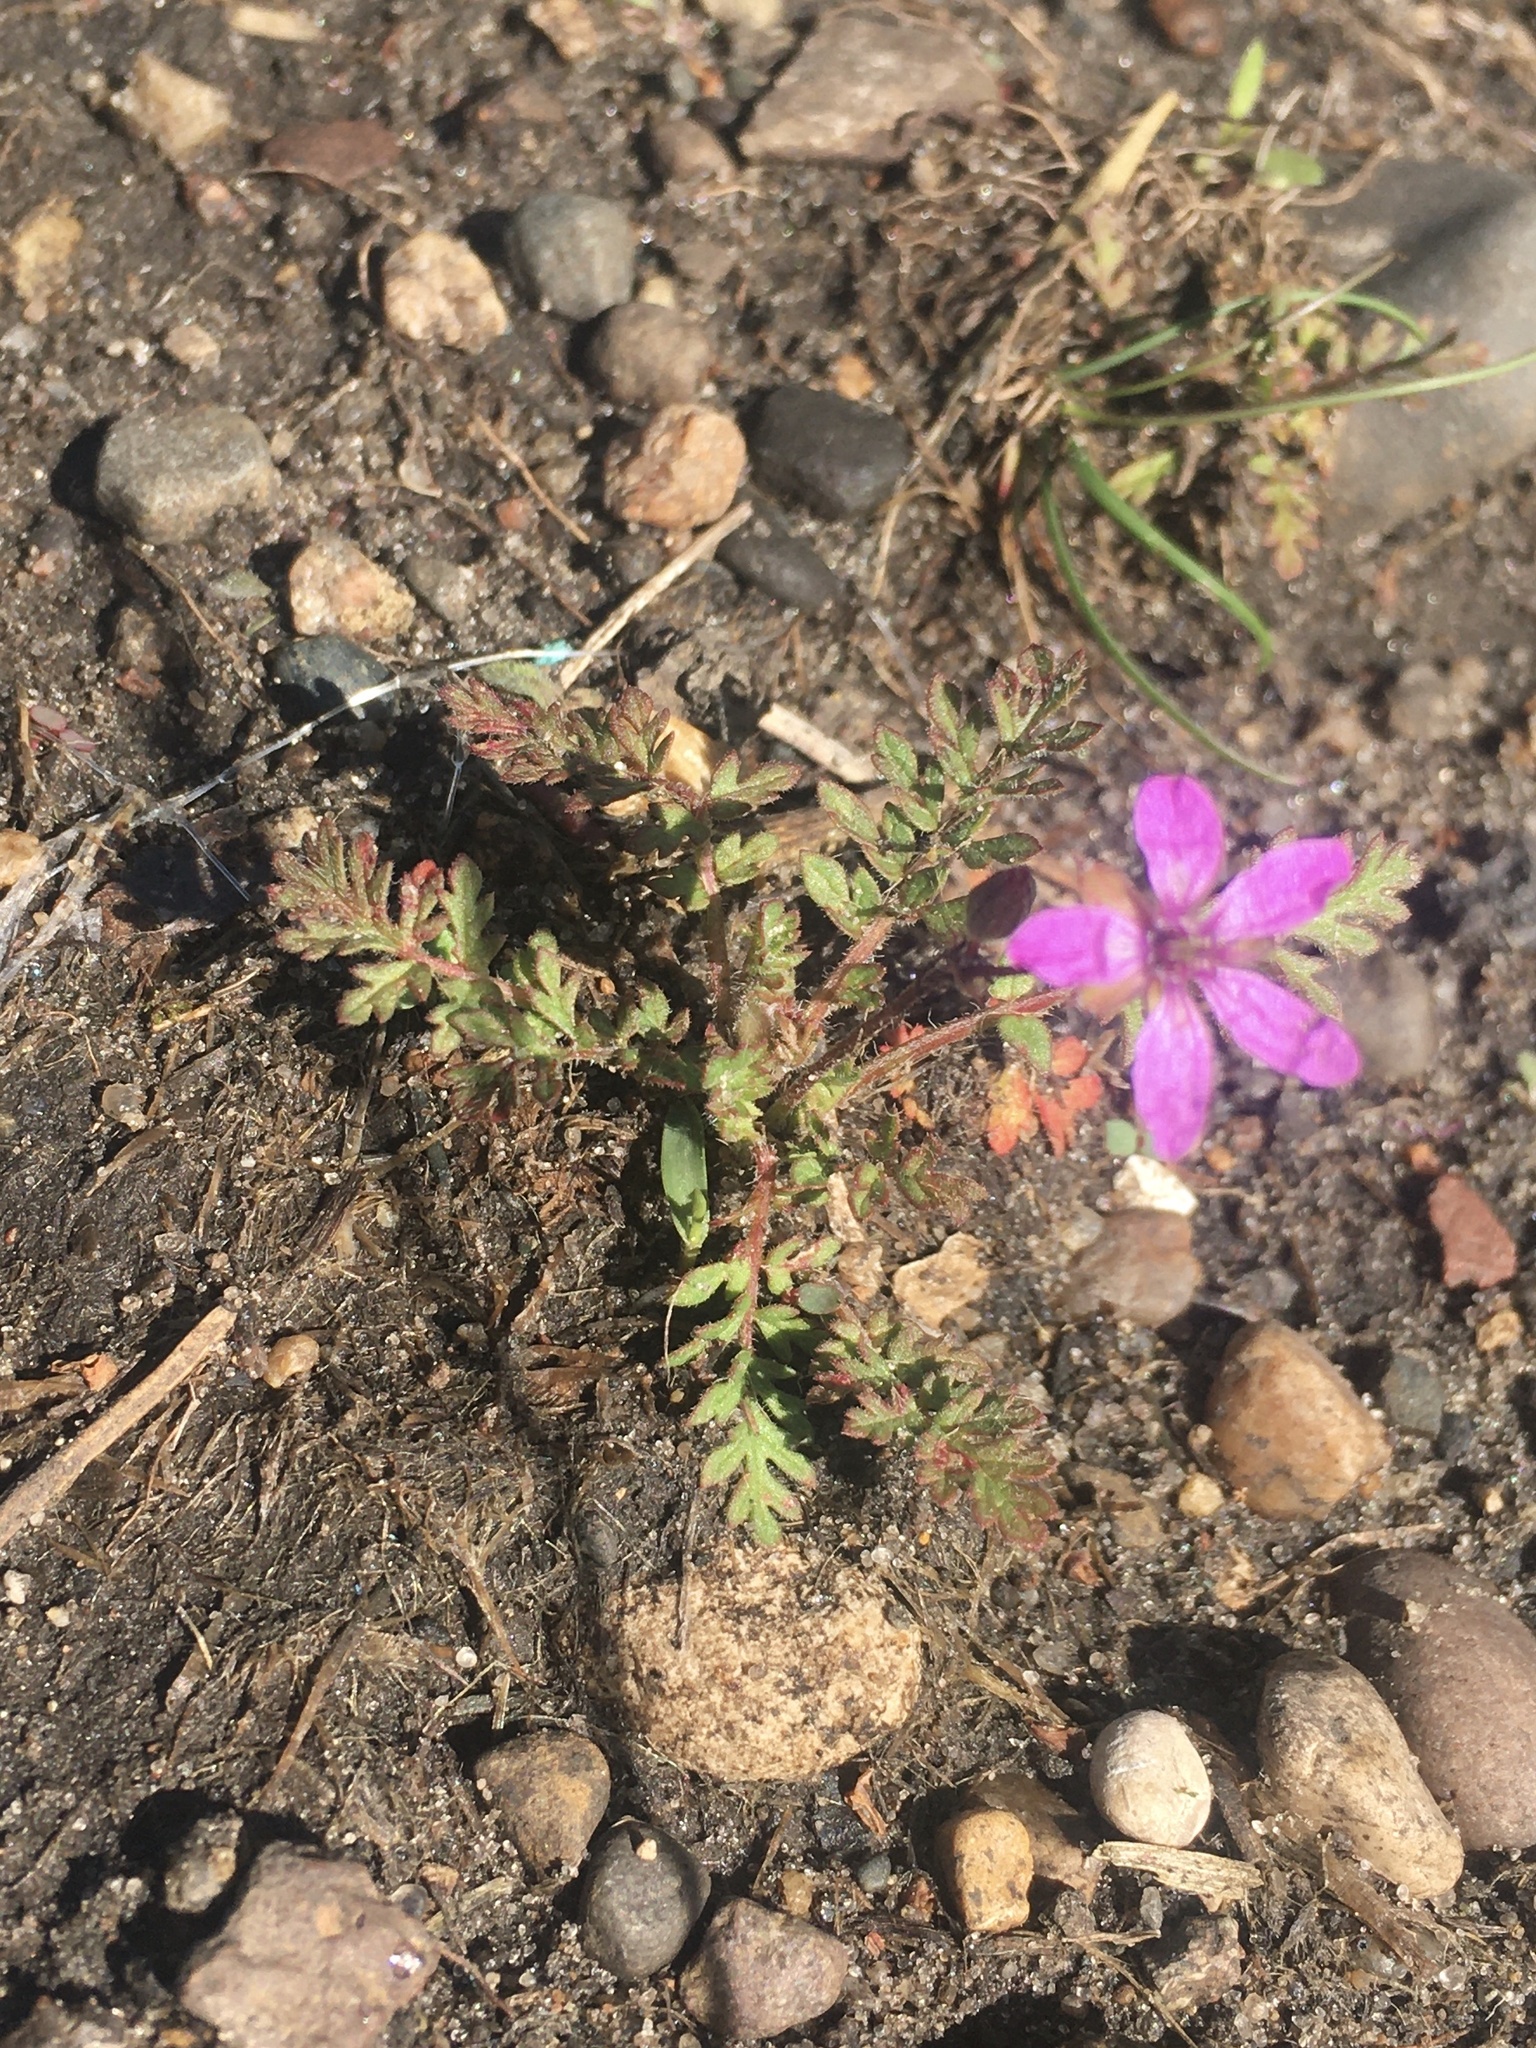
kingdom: Plantae
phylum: Tracheophyta
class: Magnoliopsida
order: Geraniales
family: Geraniaceae
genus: Erodium
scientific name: Erodium cicutarium
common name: Common stork's-bill
